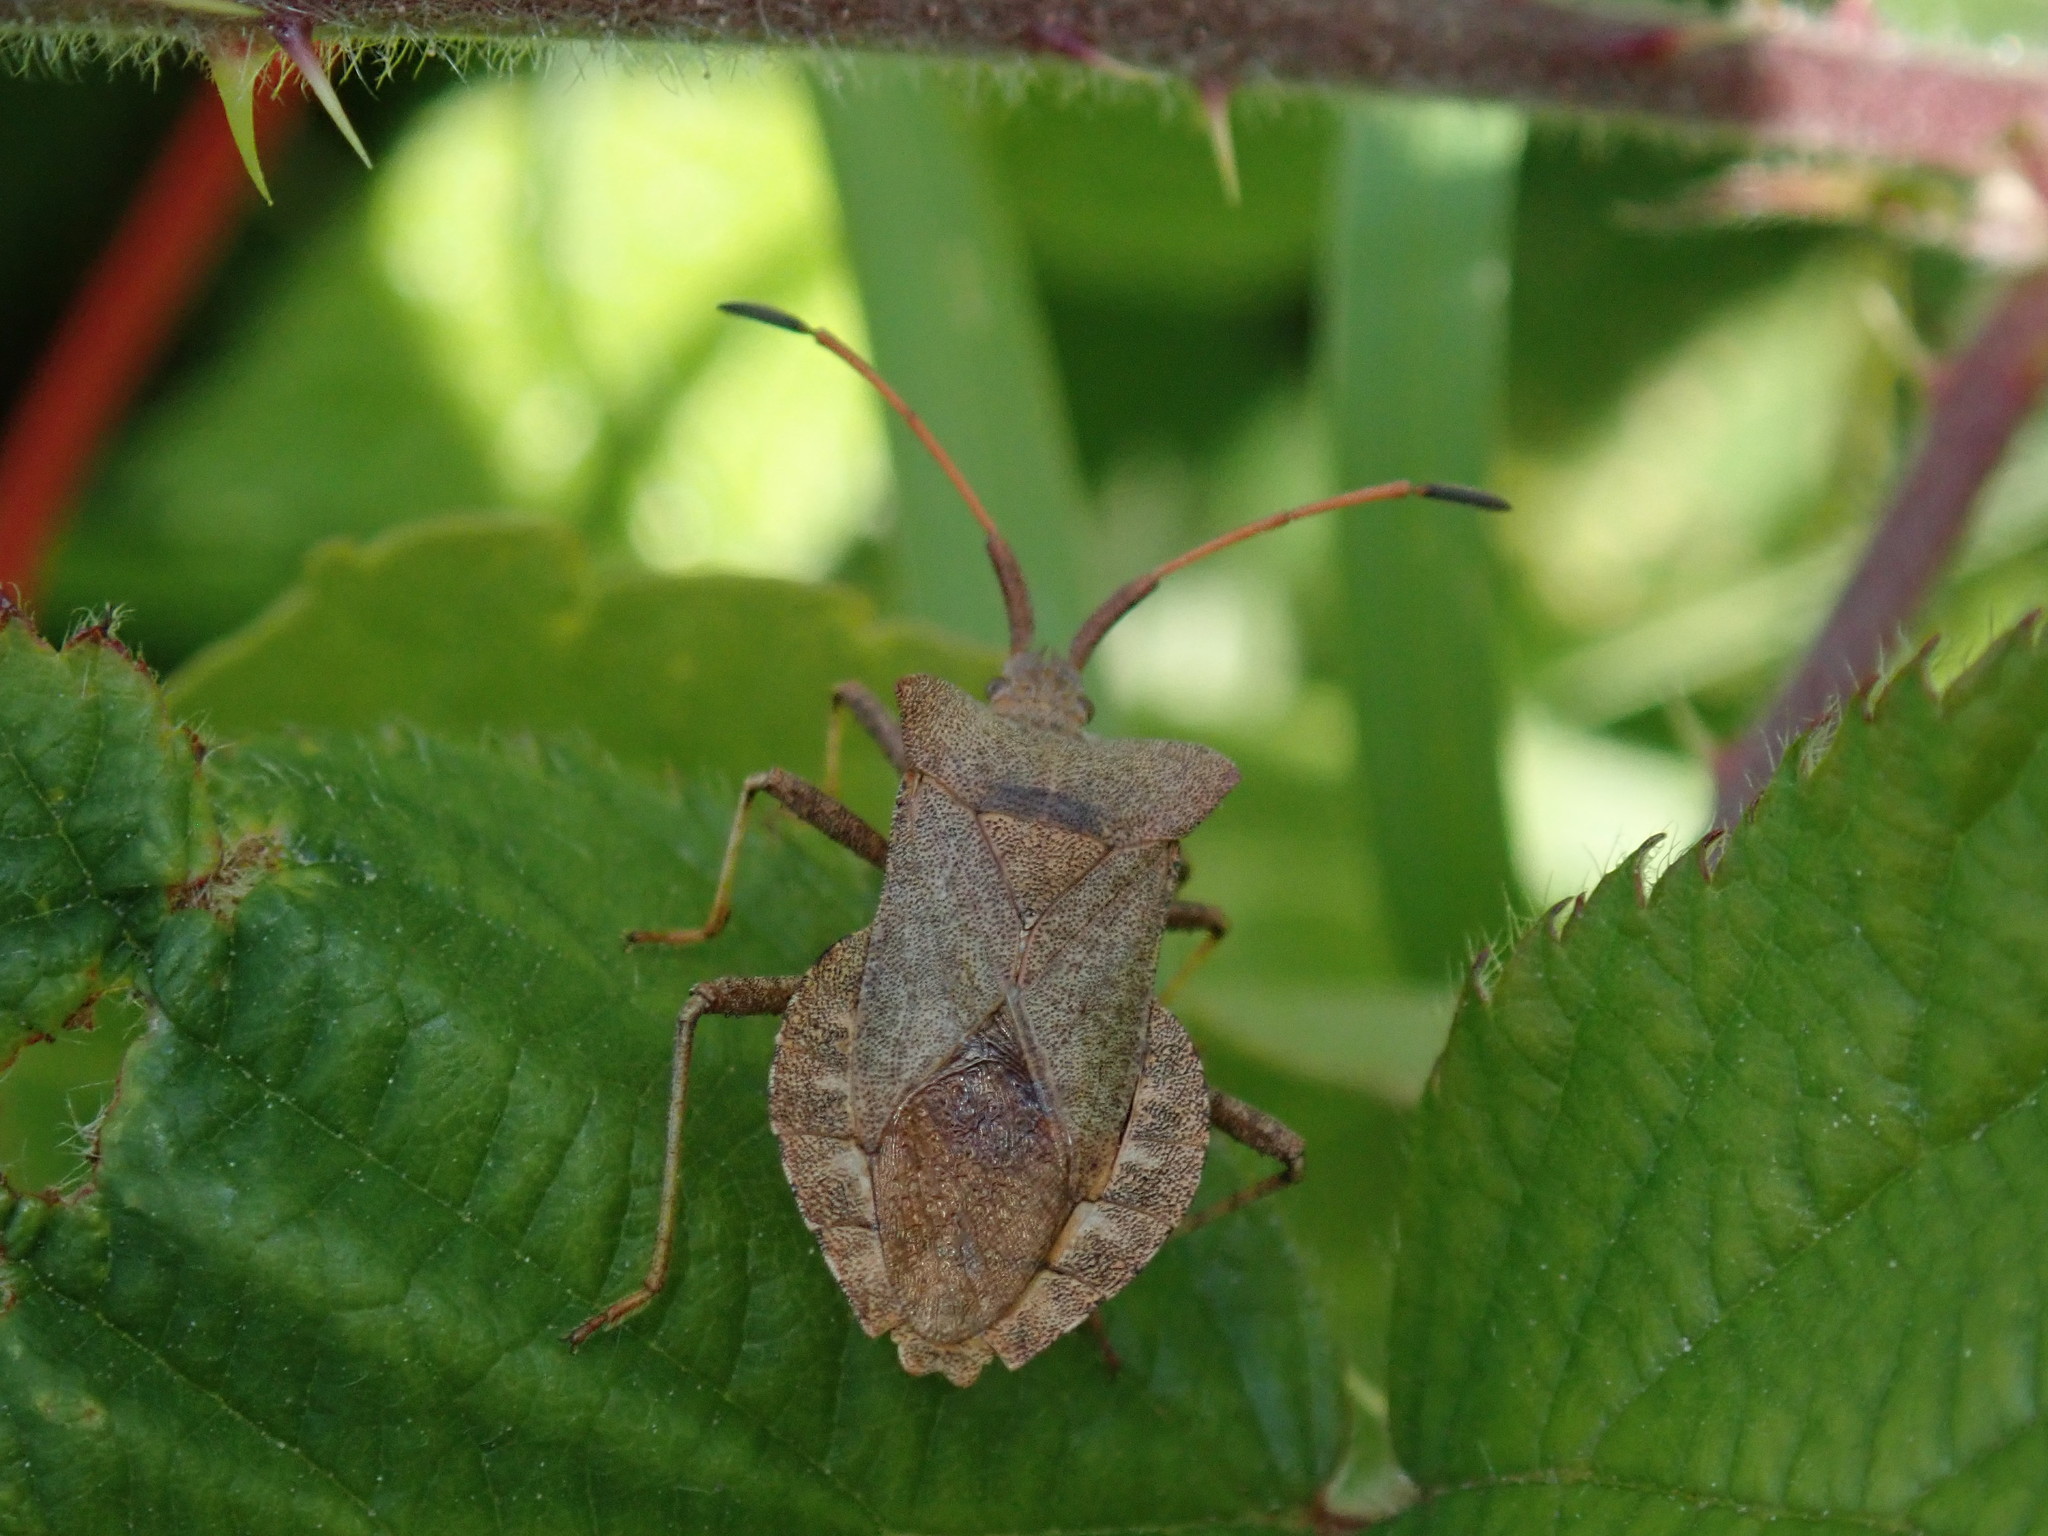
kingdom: Animalia
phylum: Arthropoda
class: Insecta
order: Hemiptera
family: Coreidae
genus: Coreus
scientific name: Coreus marginatus
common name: Dock bug
